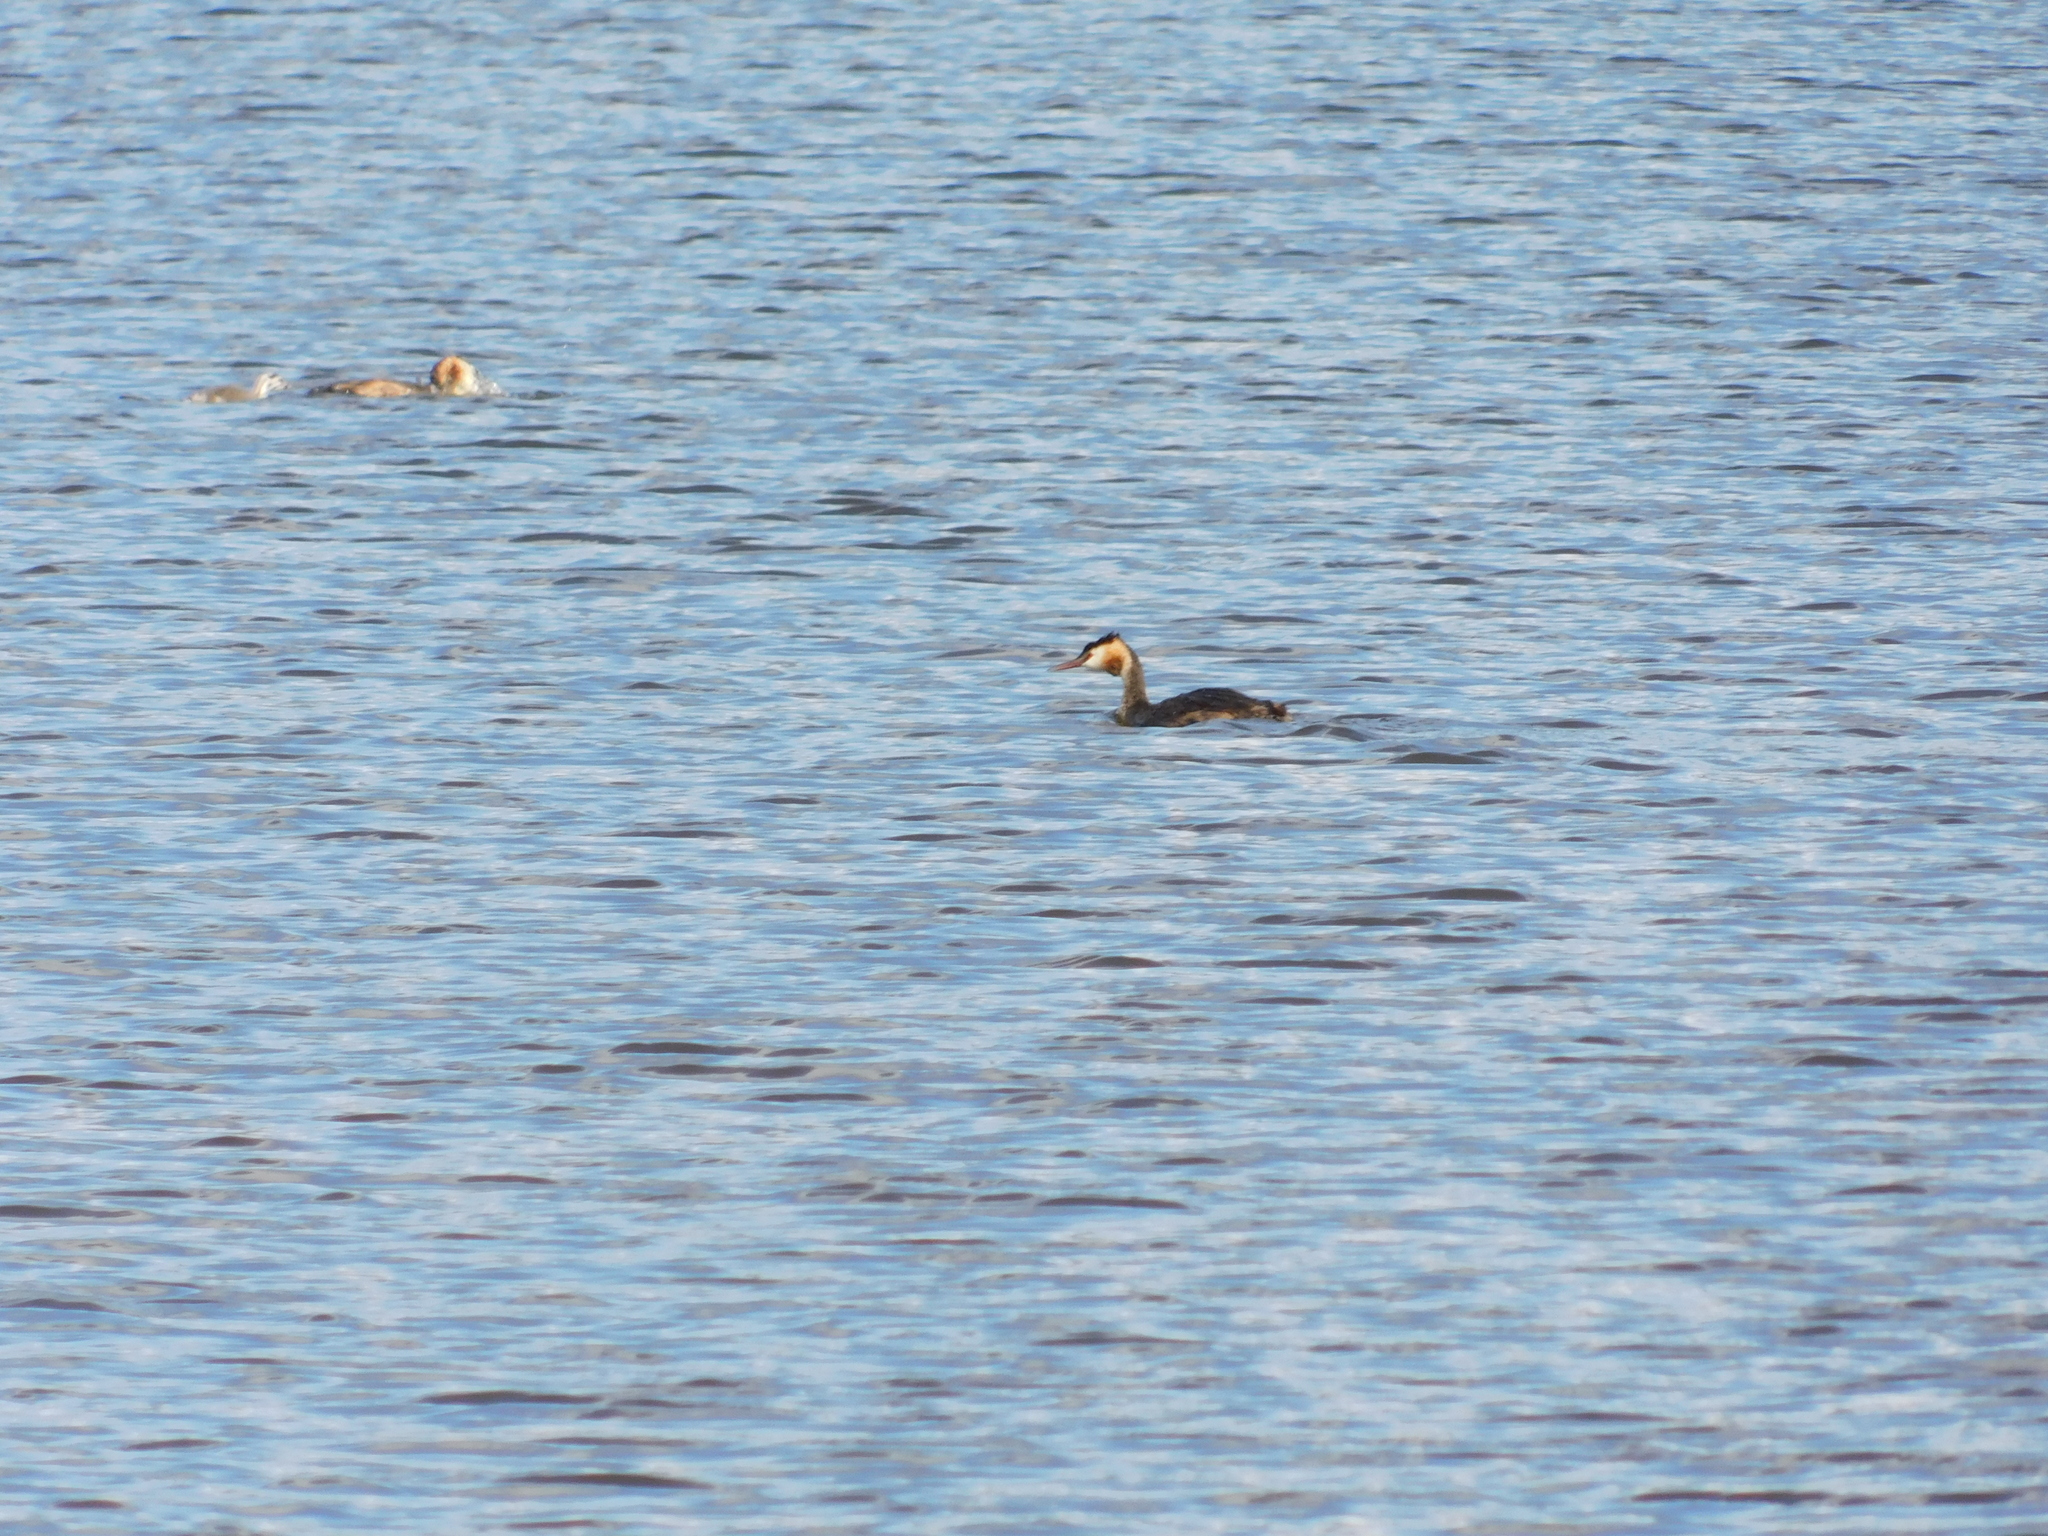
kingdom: Animalia
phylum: Chordata
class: Aves
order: Podicipediformes
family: Podicipedidae
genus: Podiceps
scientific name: Podiceps cristatus
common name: Great crested grebe
